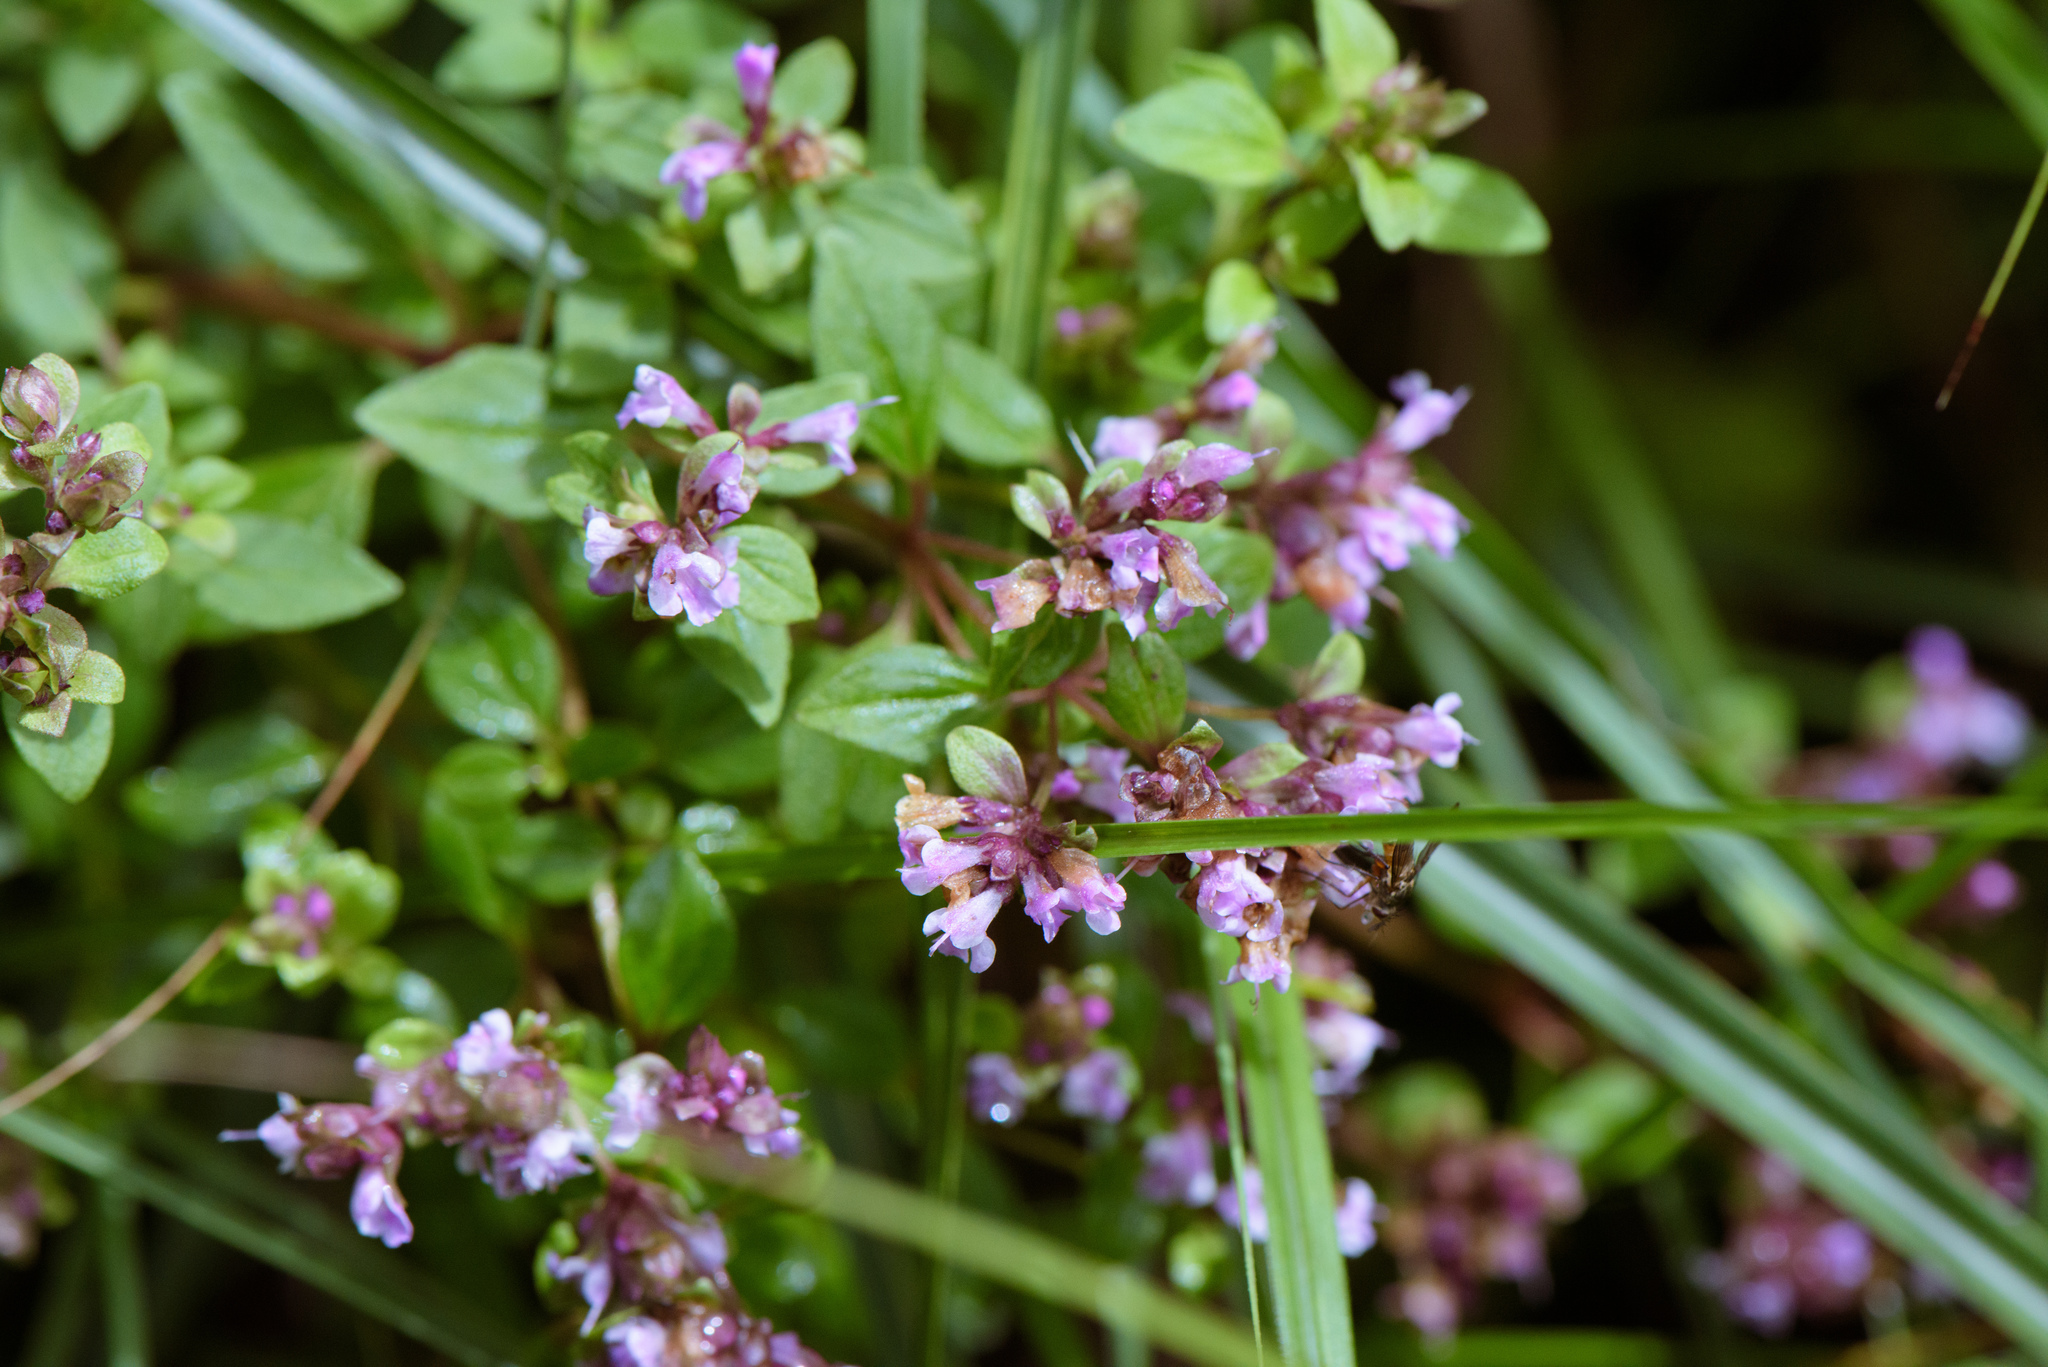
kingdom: Plantae
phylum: Tracheophyta
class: Magnoliopsida
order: Lamiales
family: Lamiaceae
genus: Origanum
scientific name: Origanum vulgare
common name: Wild marjoram
